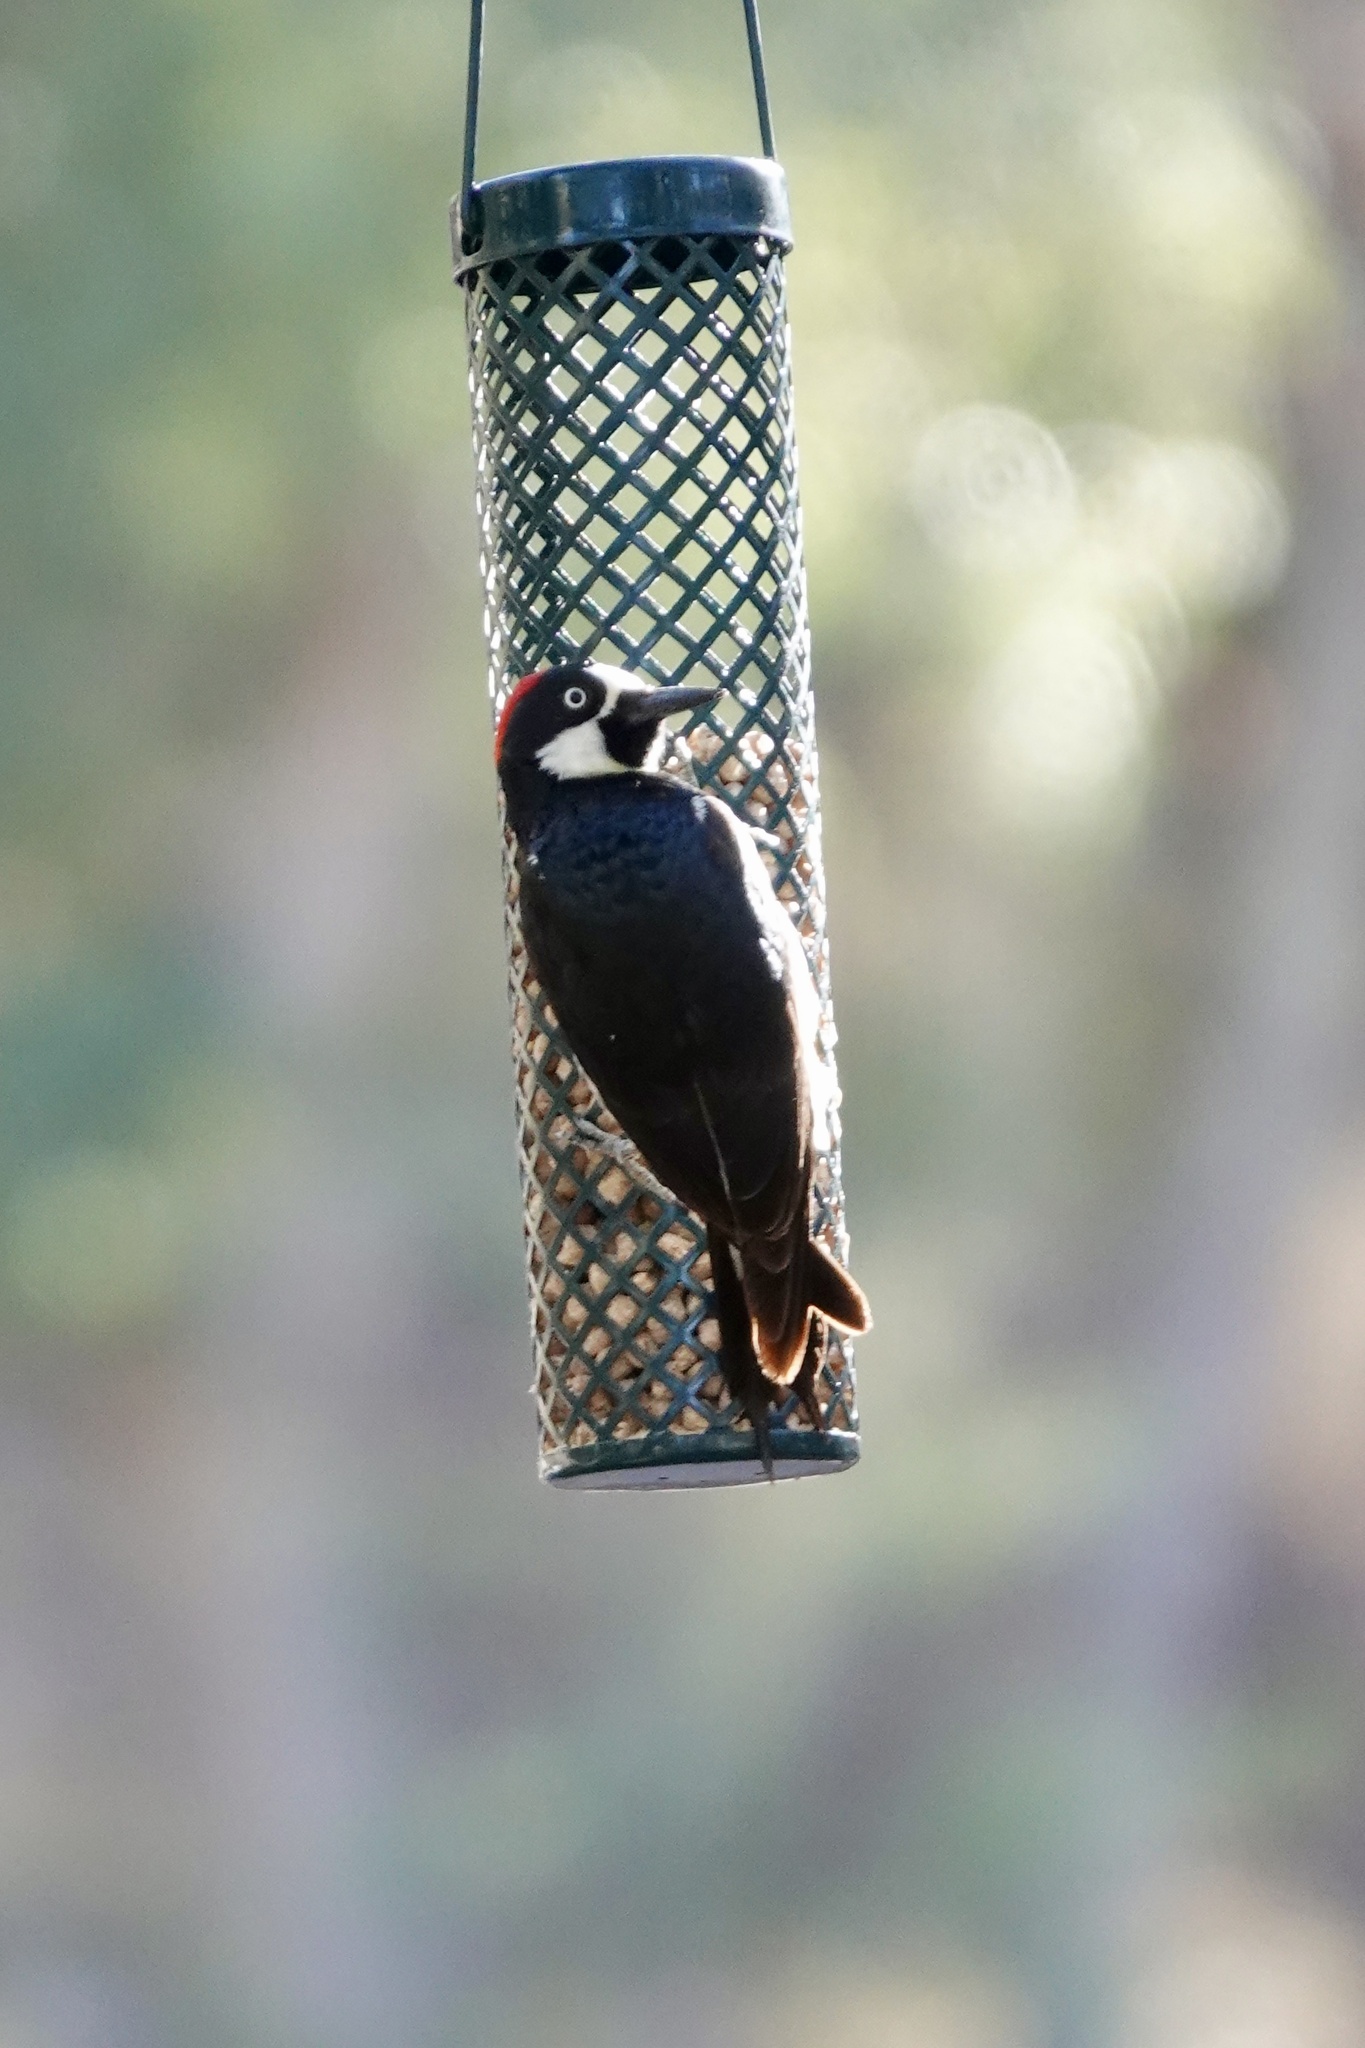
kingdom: Animalia
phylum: Chordata
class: Aves
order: Piciformes
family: Picidae
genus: Melanerpes
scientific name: Melanerpes formicivorus
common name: Acorn woodpecker
